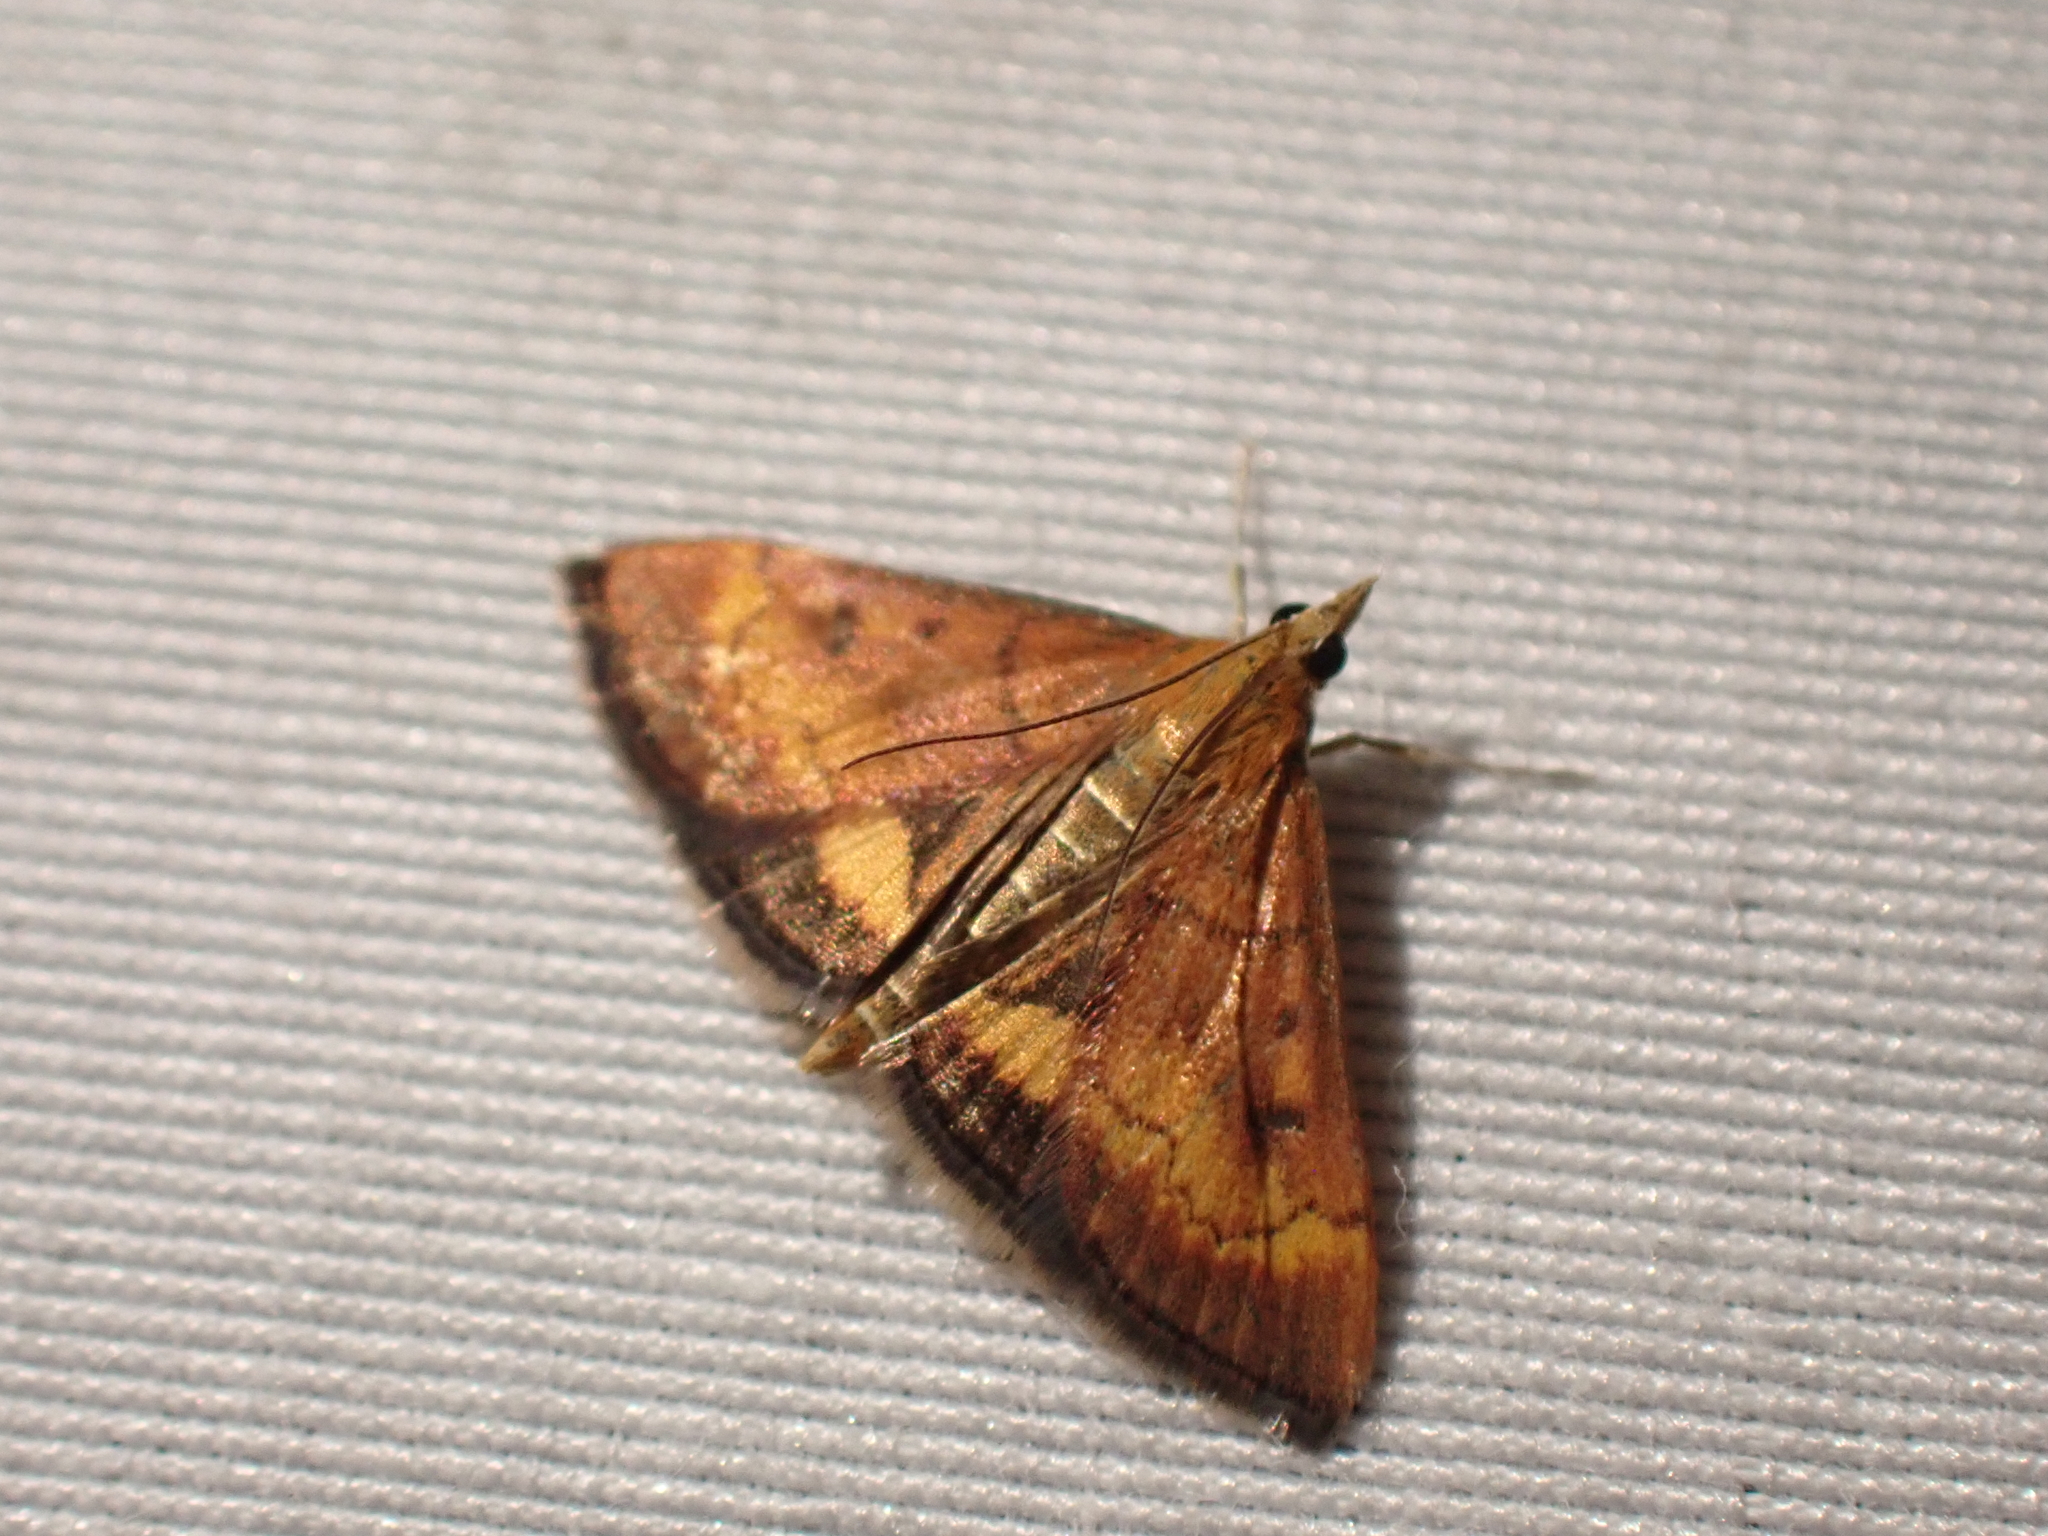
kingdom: Animalia
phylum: Arthropoda
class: Insecta
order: Lepidoptera
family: Crambidae
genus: Pyrausta
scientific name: Pyrausta californicalis
